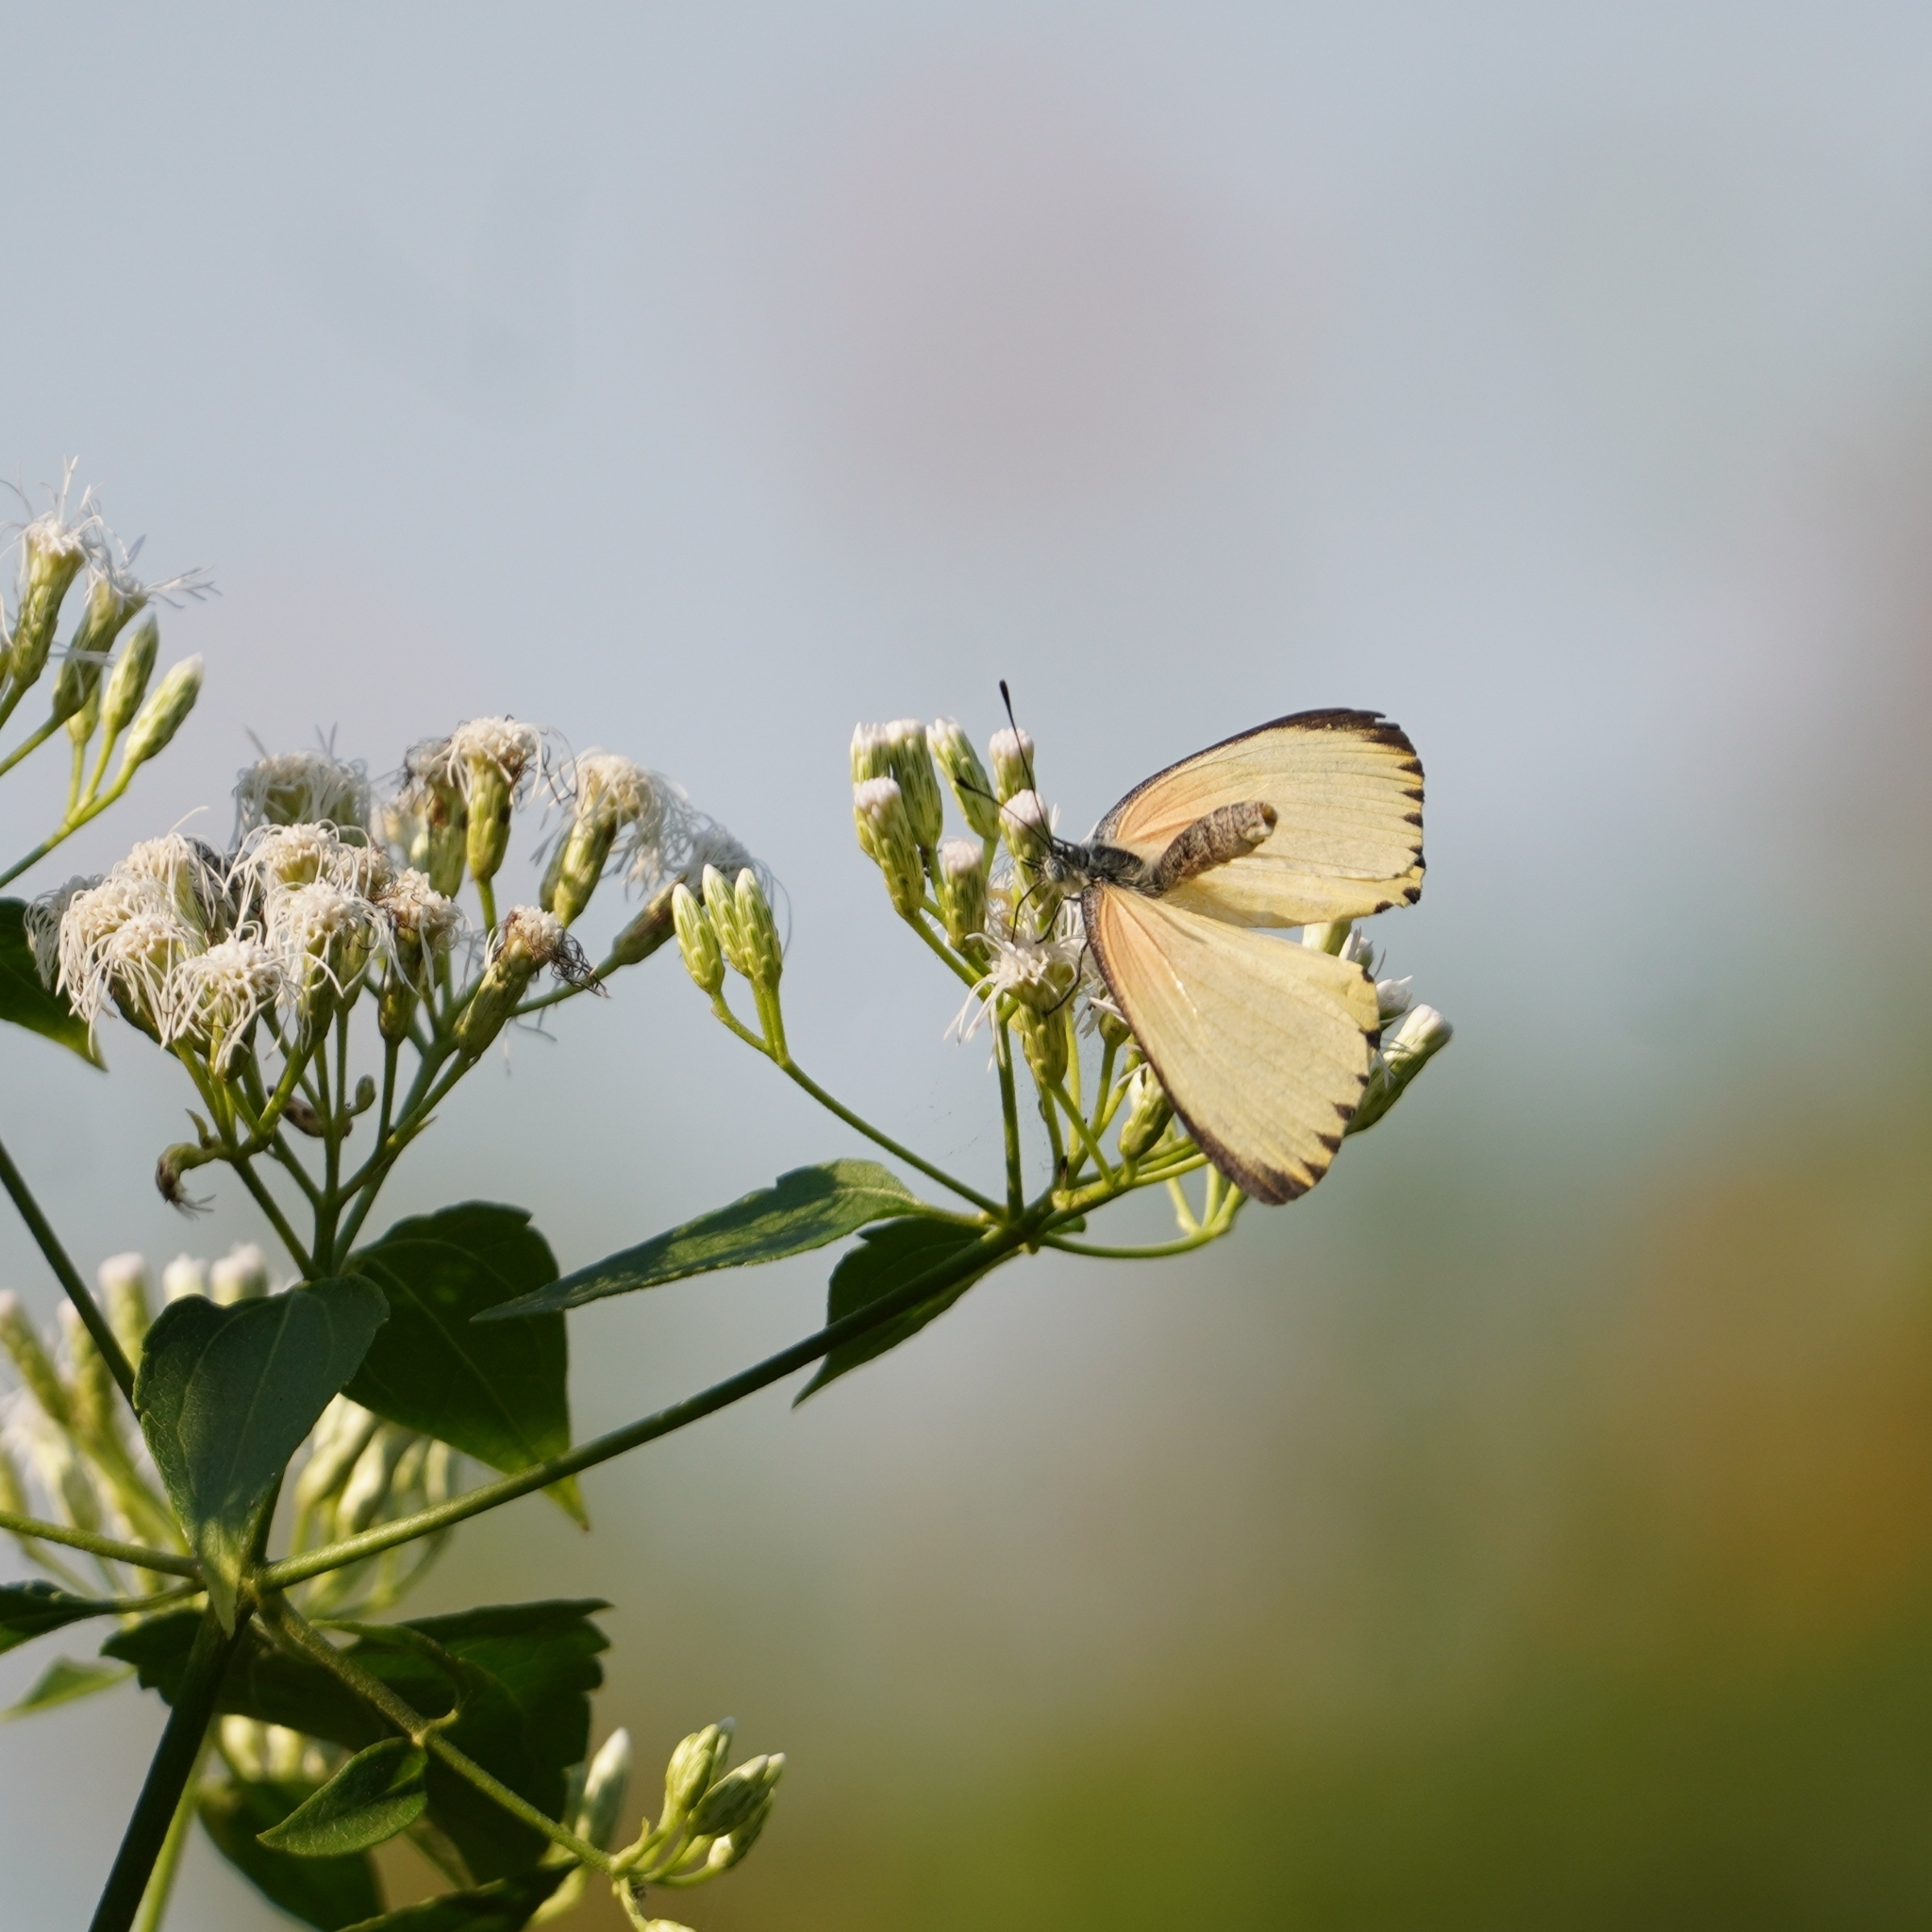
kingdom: Animalia
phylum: Arthropoda
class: Insecta
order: Lepidoptera
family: Pieridae
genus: Mylothris
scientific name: Mylothris agathina
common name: Eastern dotted border
